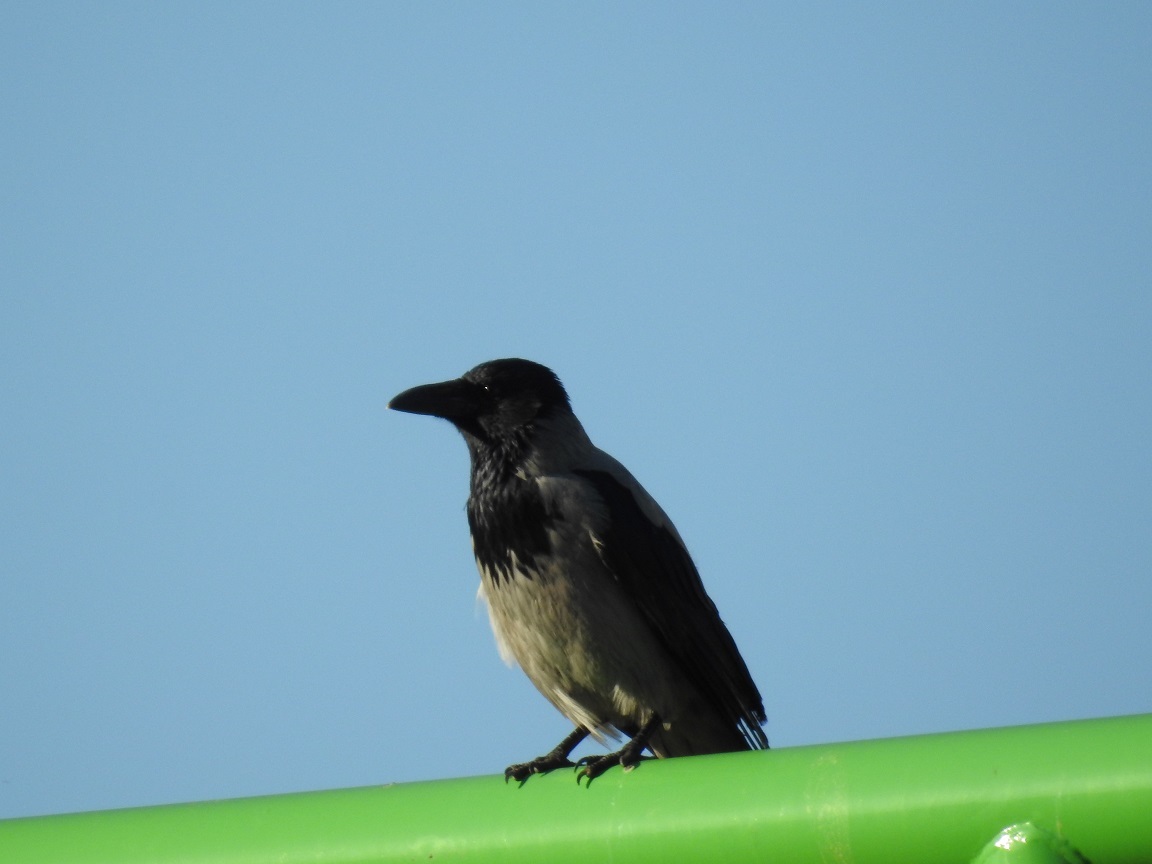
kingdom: Animalia
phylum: Chordata
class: Aves
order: Passeriformes
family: Corvidae
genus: Corvus
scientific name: Corvus cornix
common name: Hooded crow
